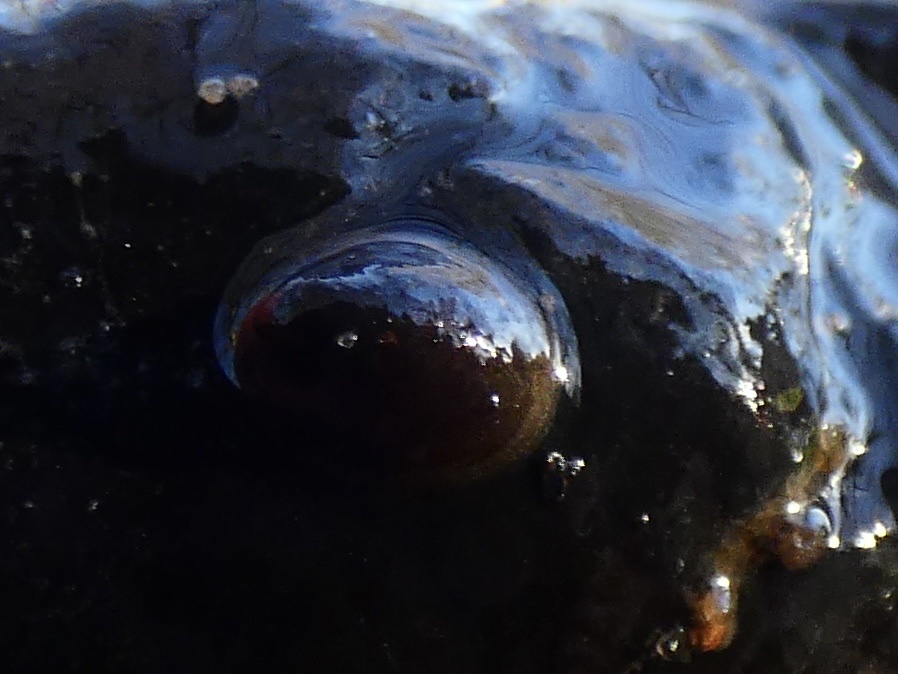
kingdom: Animalia
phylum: Mollusca
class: Gastropoda
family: Planorbidae
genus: Ancylus
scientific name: Ancylus fluviatilis
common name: River limpet
